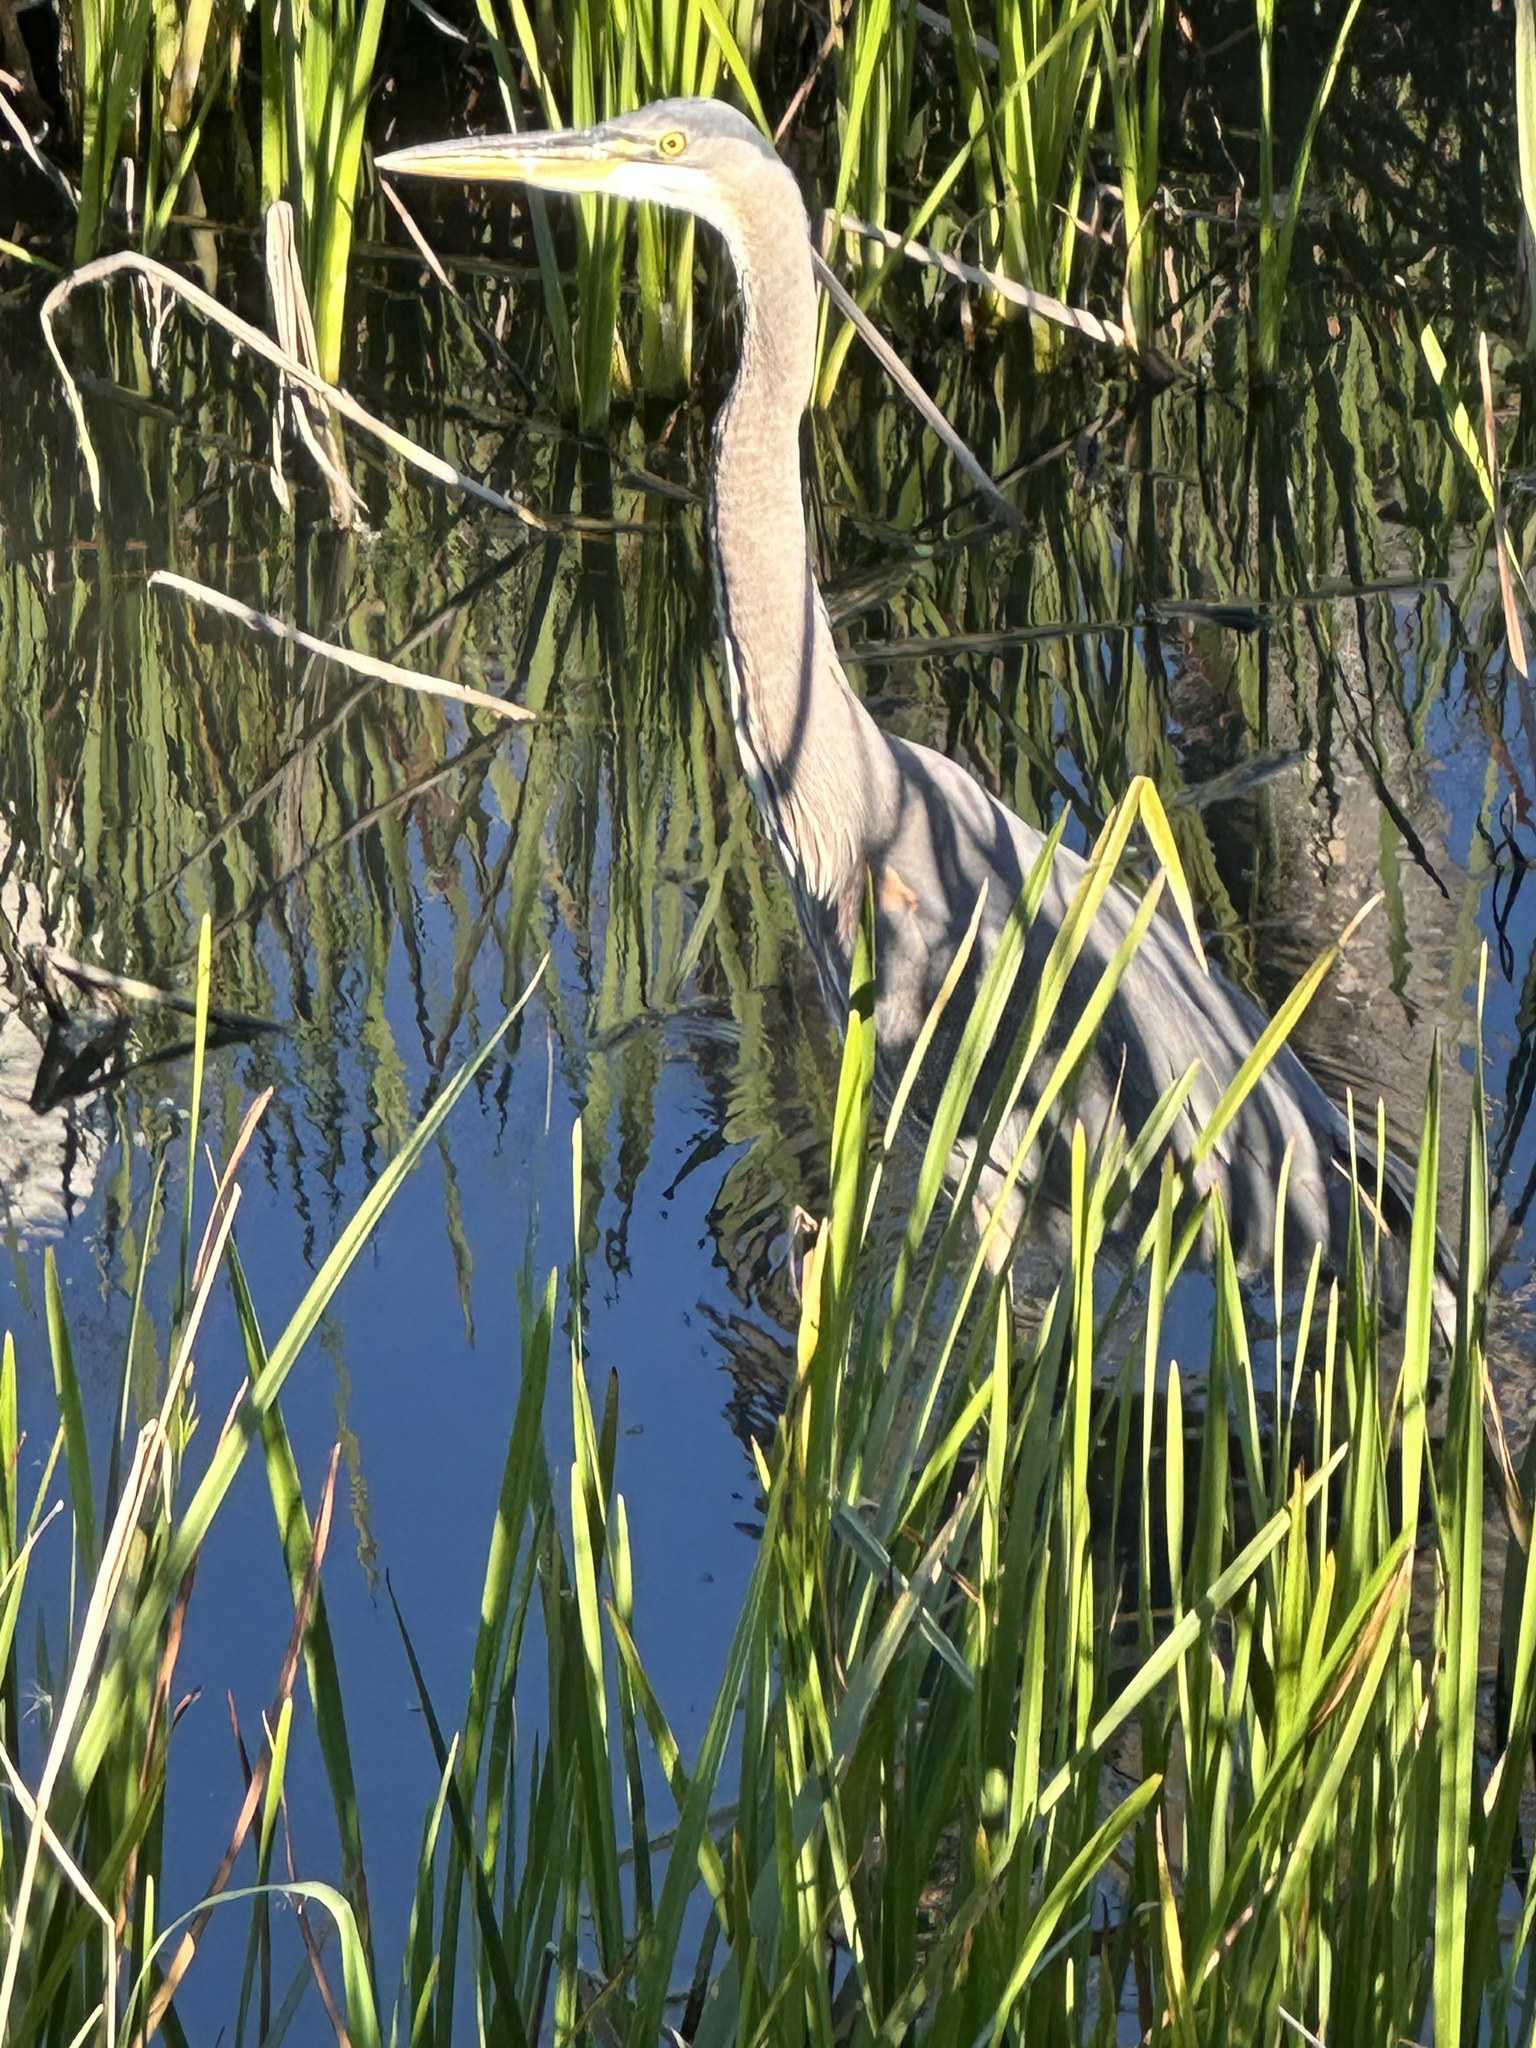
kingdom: Animalia
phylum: Chordata
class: Aves
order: Pelecaniformes
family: Ardeidae
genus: Ardea
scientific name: Ardea herodias
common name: Great blue heron
